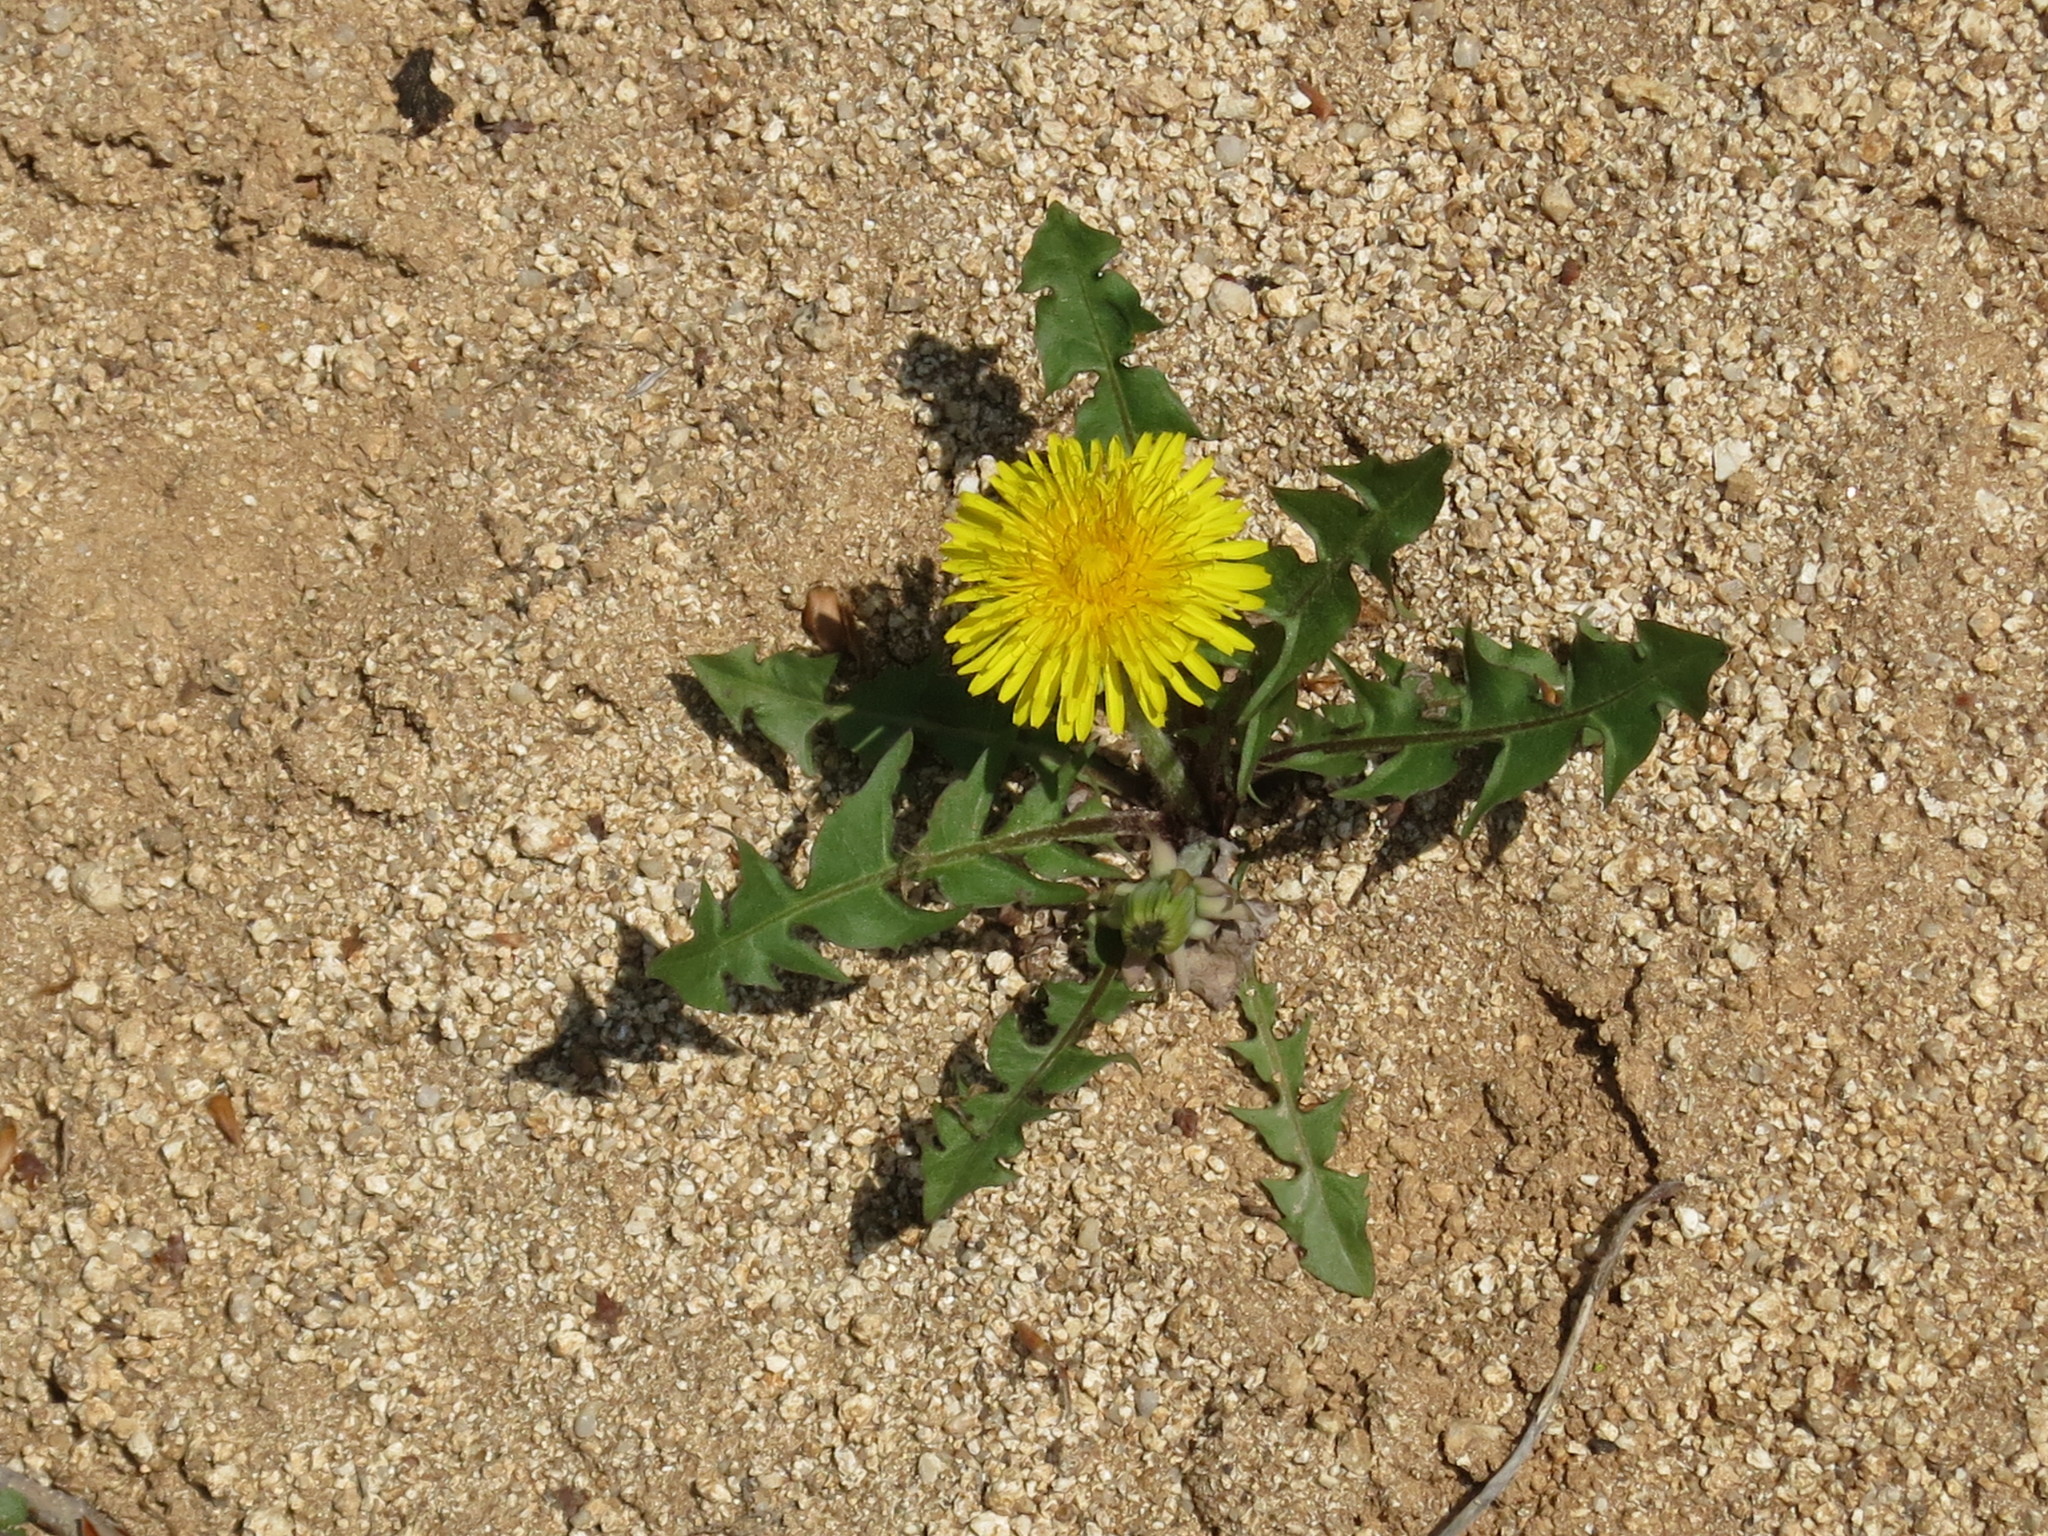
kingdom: Plantae
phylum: Tracheophyta
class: Magnoliopsida
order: Asterales
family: Asteraceae
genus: Taraxacum
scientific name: Taraxacum officinale
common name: Common dandelion
